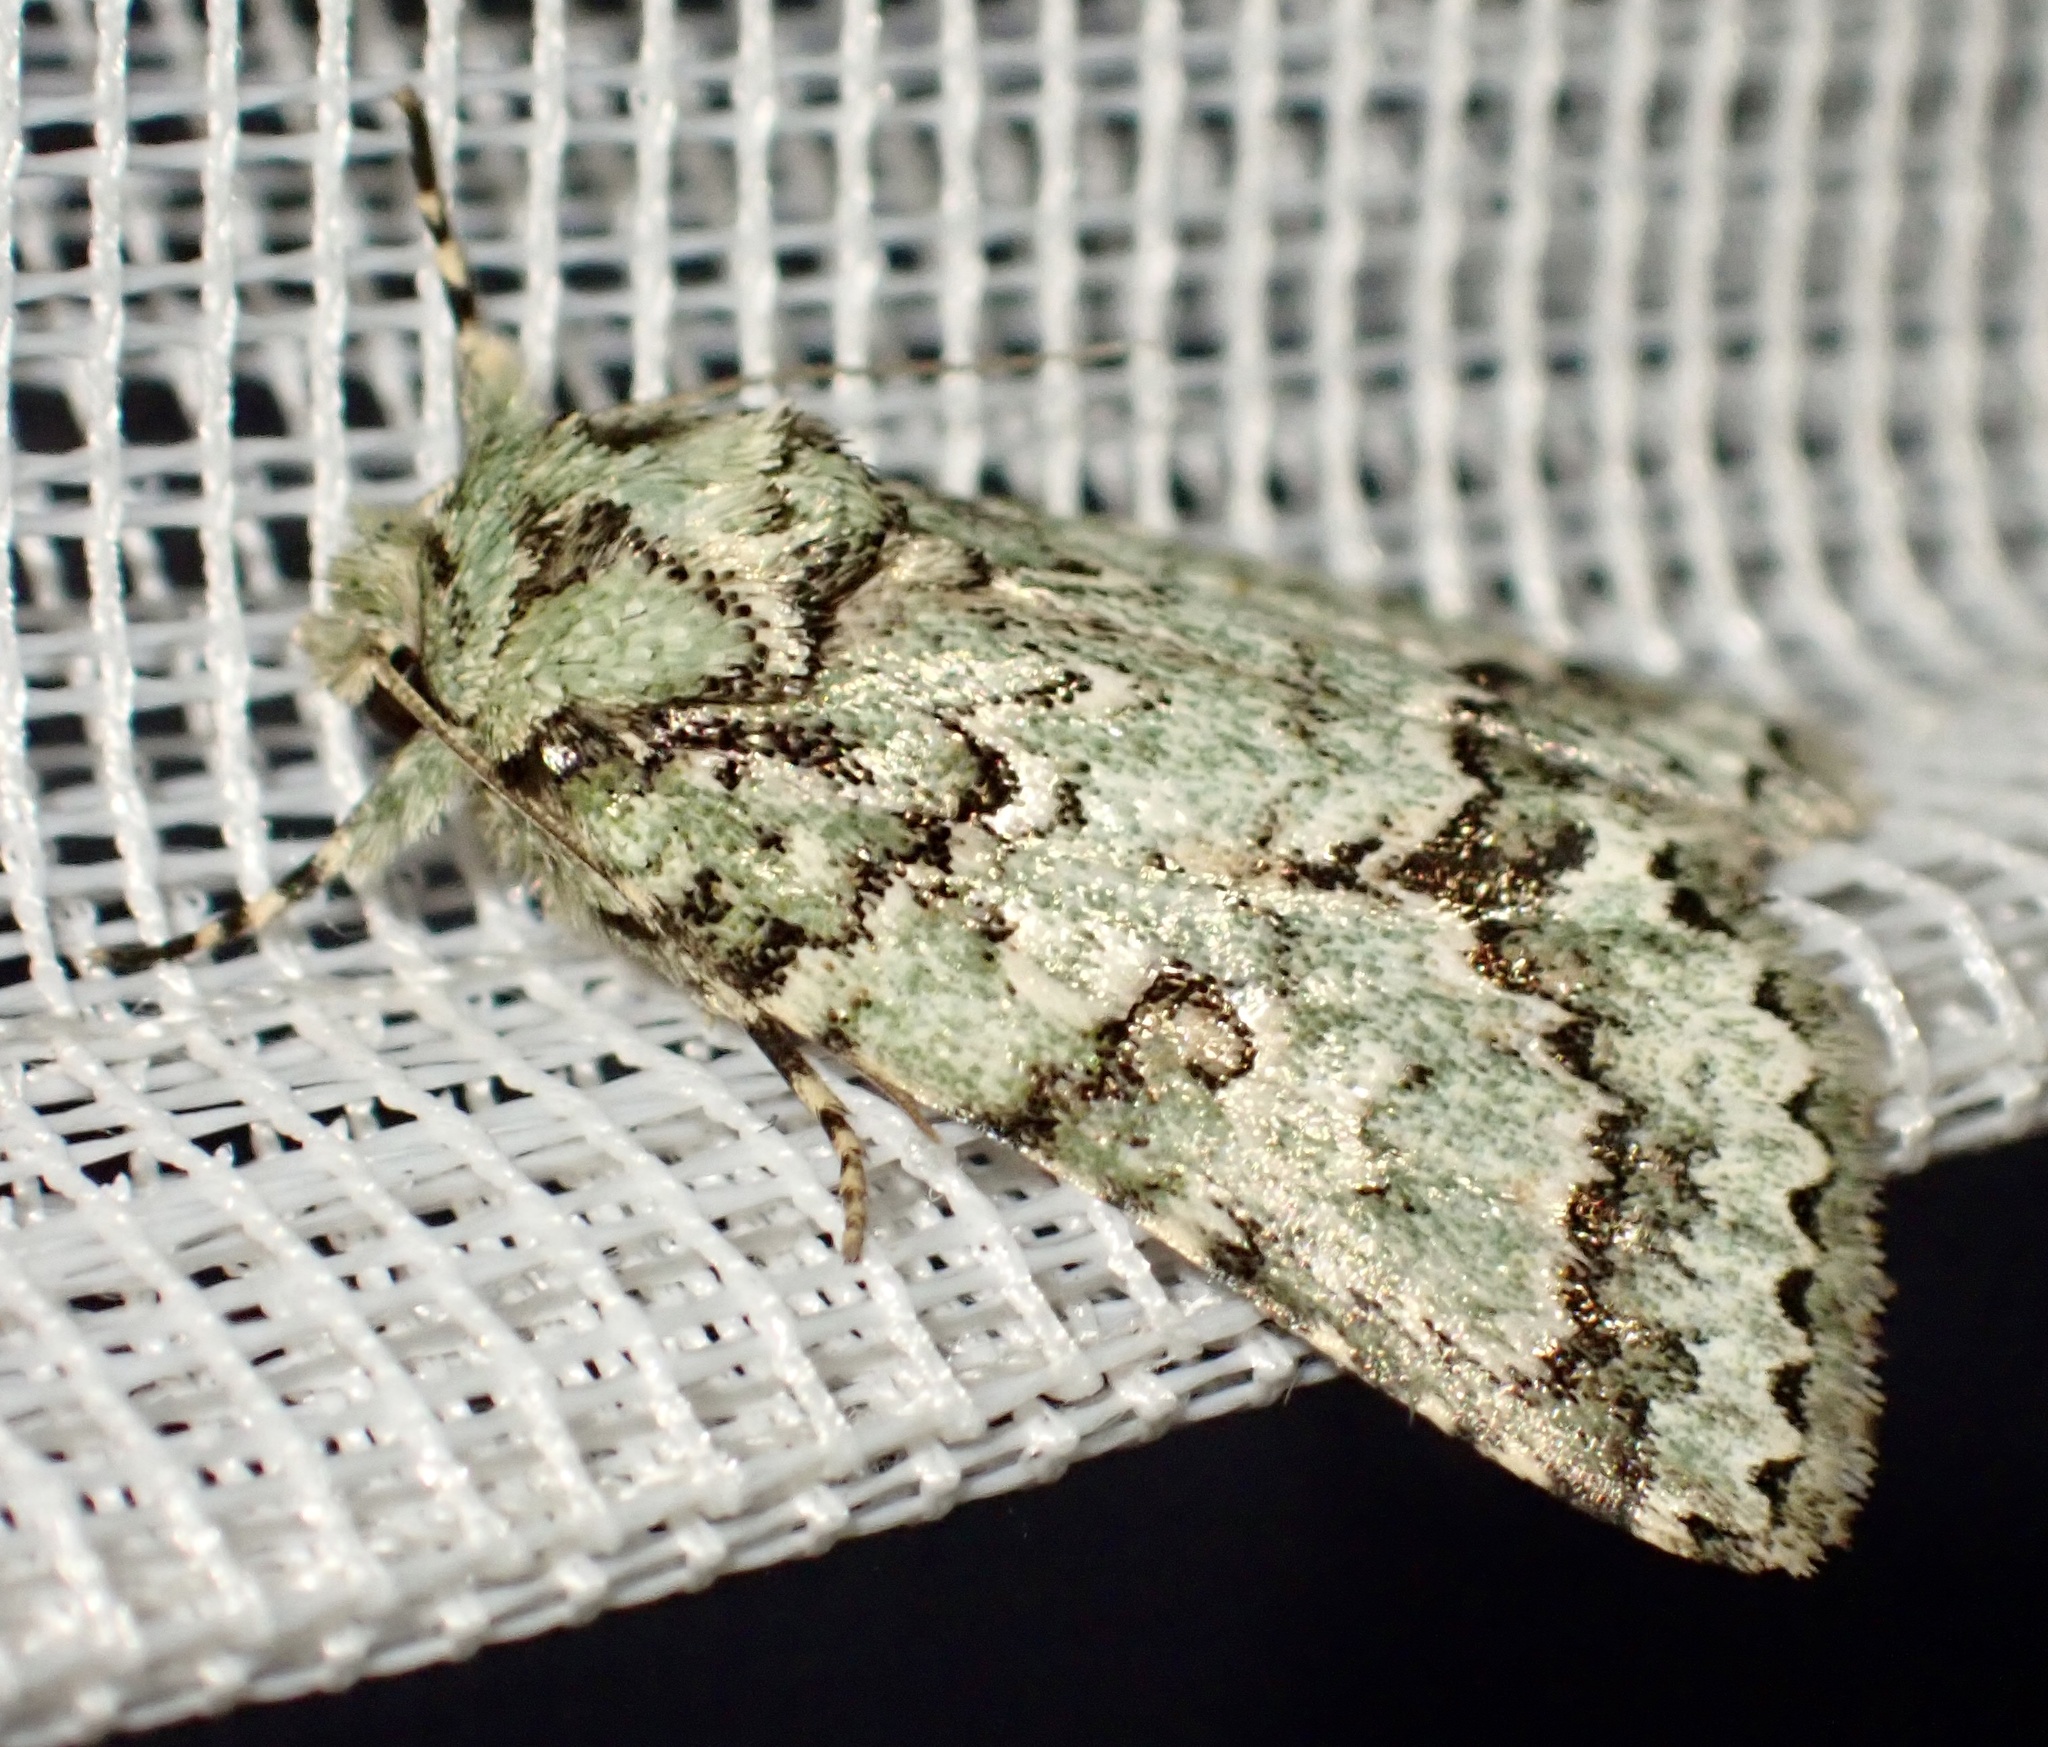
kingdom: Animalia
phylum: Arthropoda
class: Insecta
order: Lepidoptera
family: Nolidae
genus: Blenina
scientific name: Blenina squamifera
